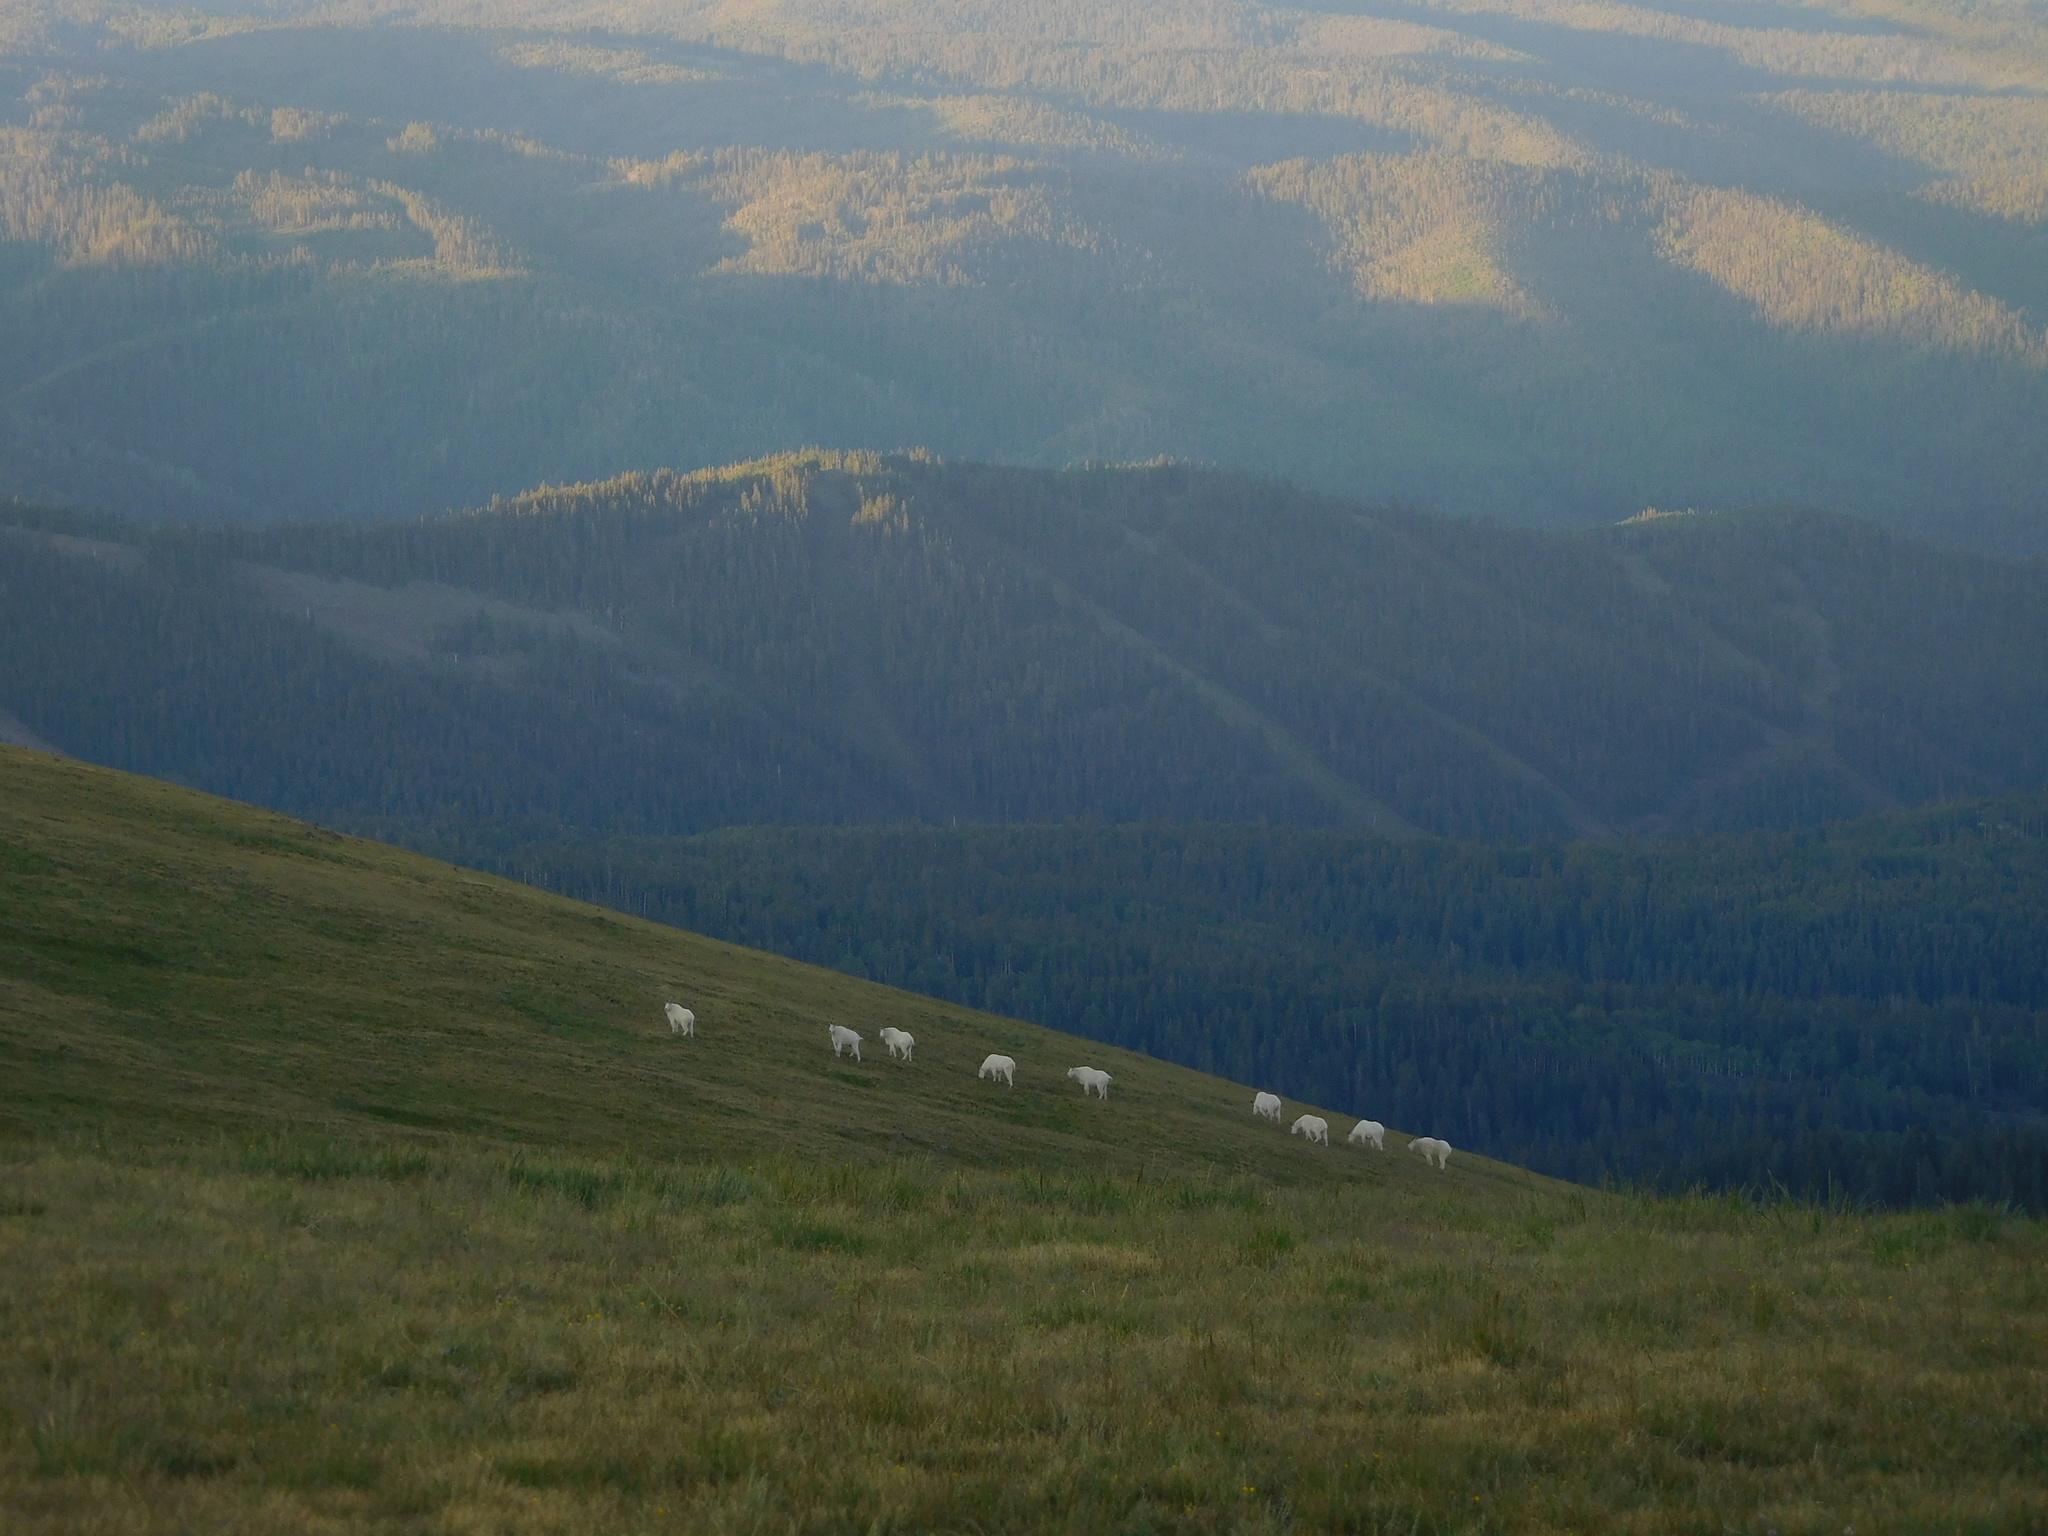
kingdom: Animalia
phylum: Chordata
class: Mammalia
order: Artiodactyla
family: Bovidae
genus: Oreamnos
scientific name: Oreamnos americanus
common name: Mountain goat
